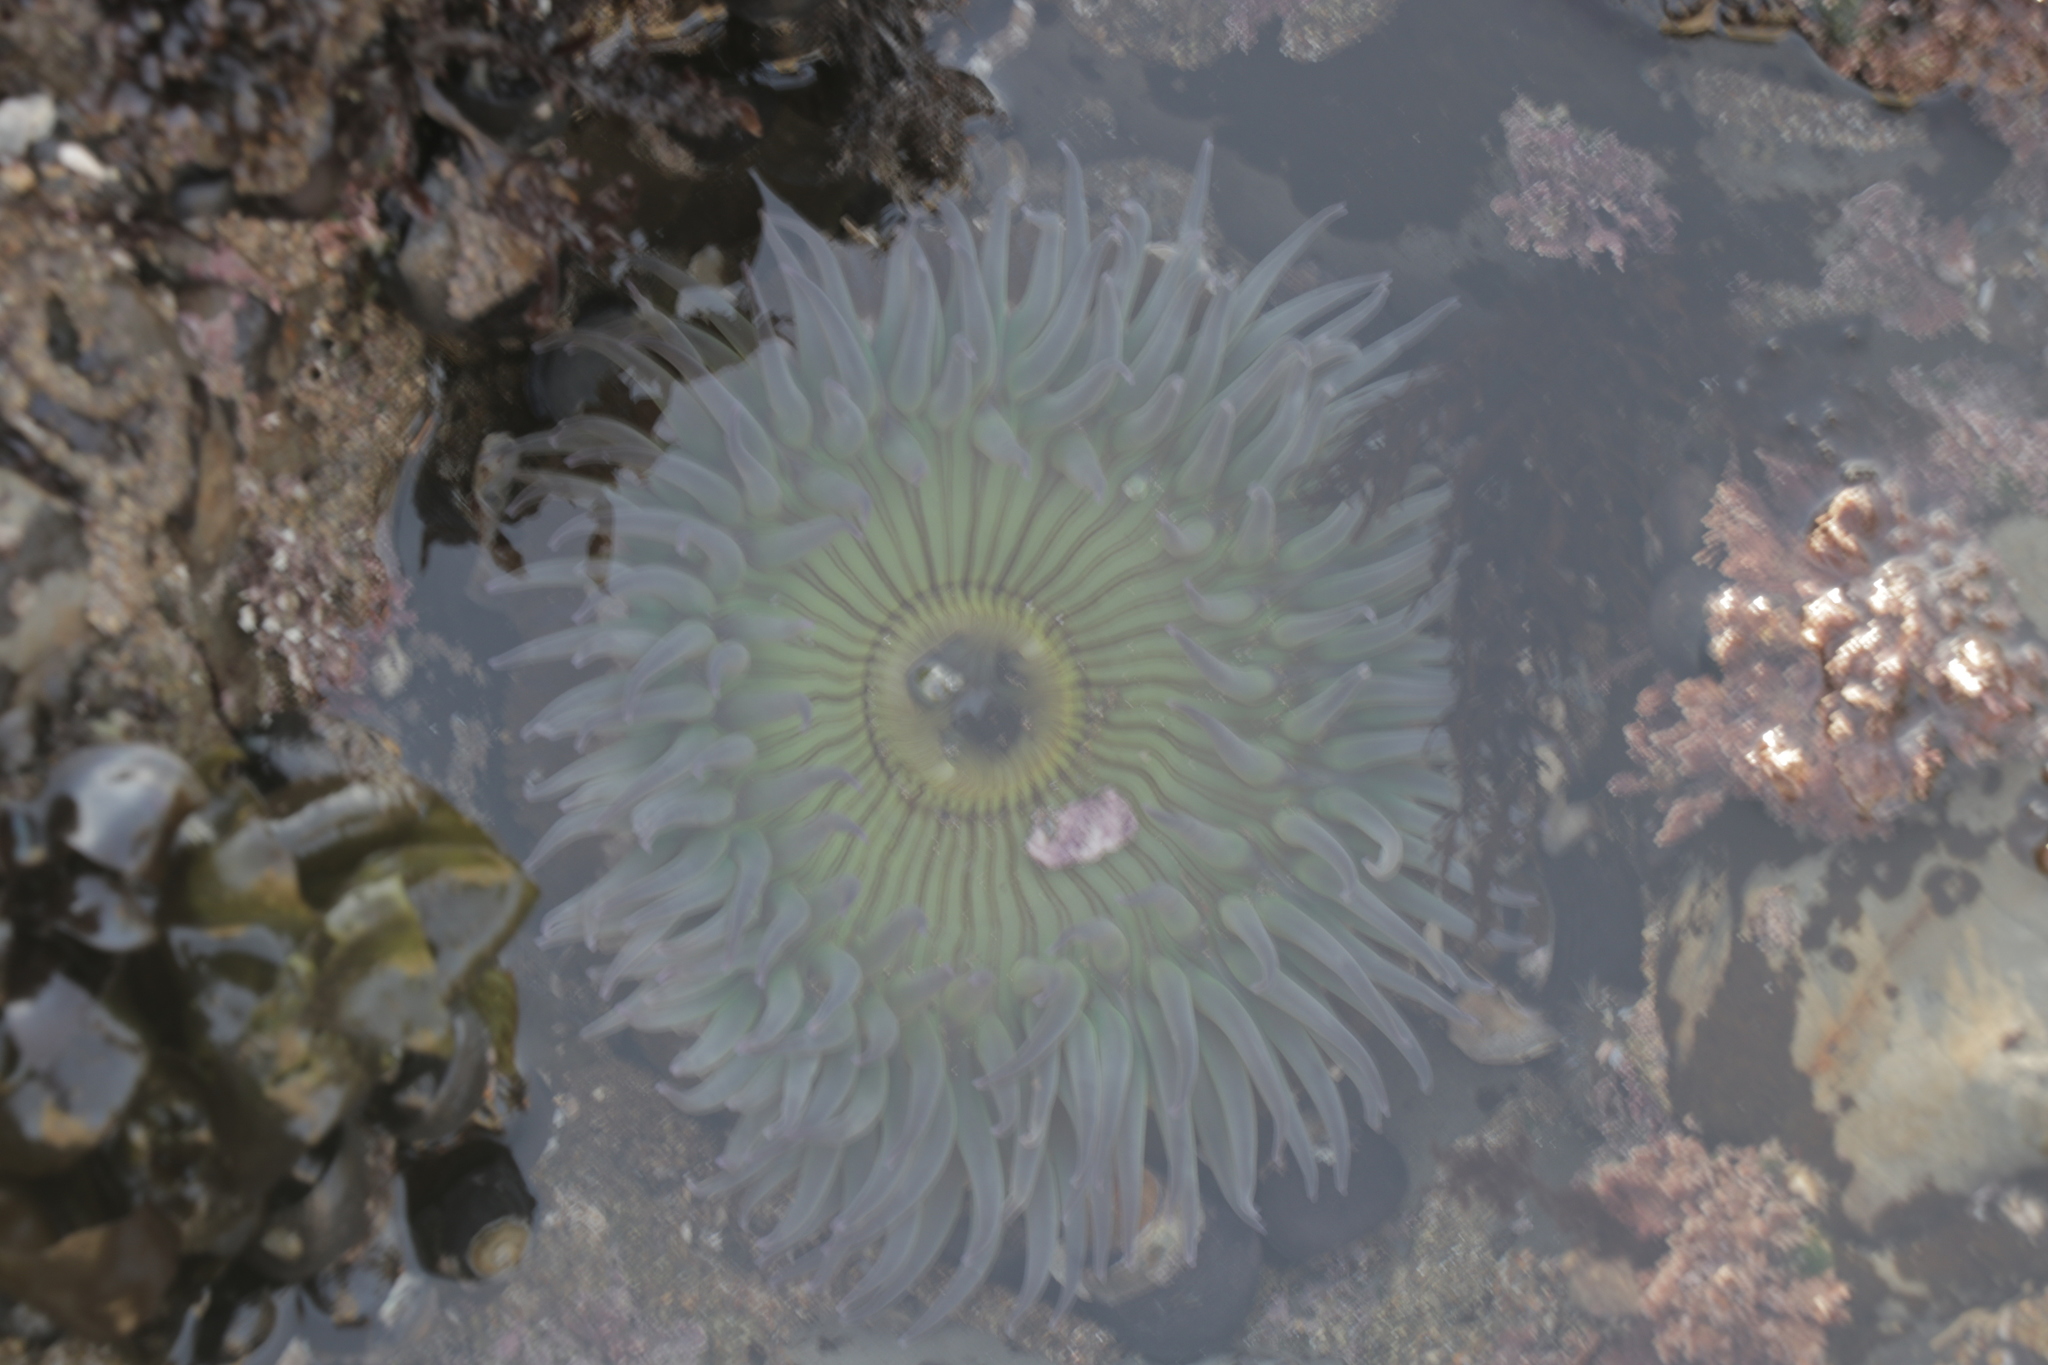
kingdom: Animalia
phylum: Cnidaria
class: Anthozoa
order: Actiniaria
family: Actiniidae
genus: Anthopleura
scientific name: Anthopleura sola
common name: Sun anemone
